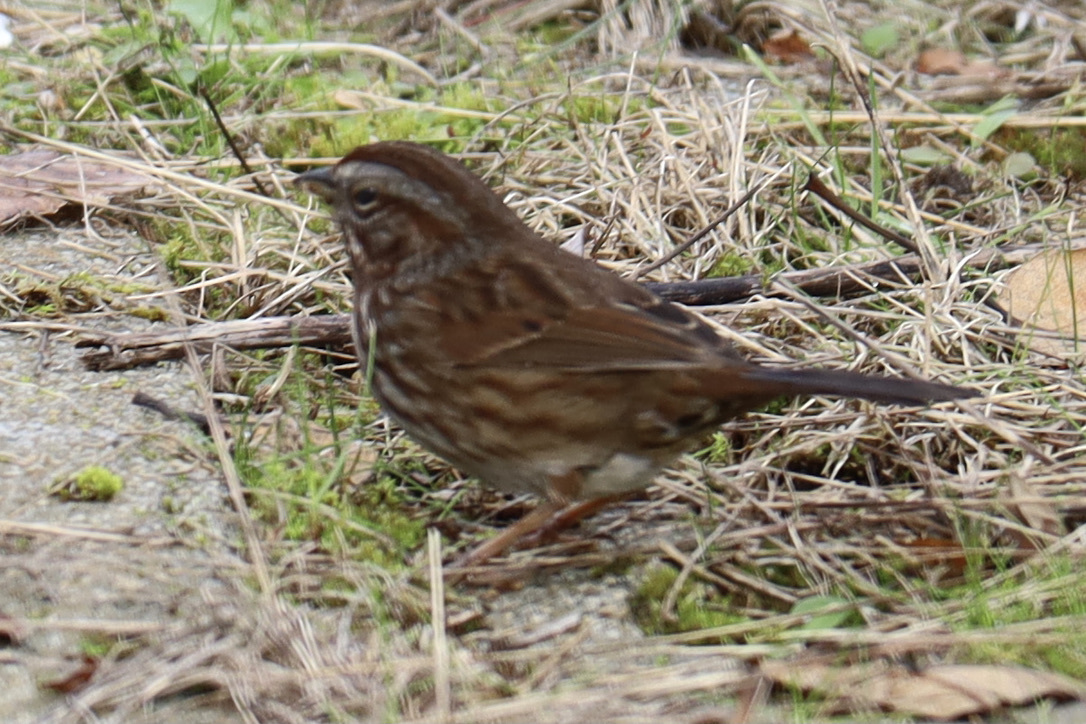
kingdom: Animalia
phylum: Chordata
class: Aves
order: Passeriformes
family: Passerellidae
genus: Melospiza
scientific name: Melospiza melodia
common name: Song sparrow
